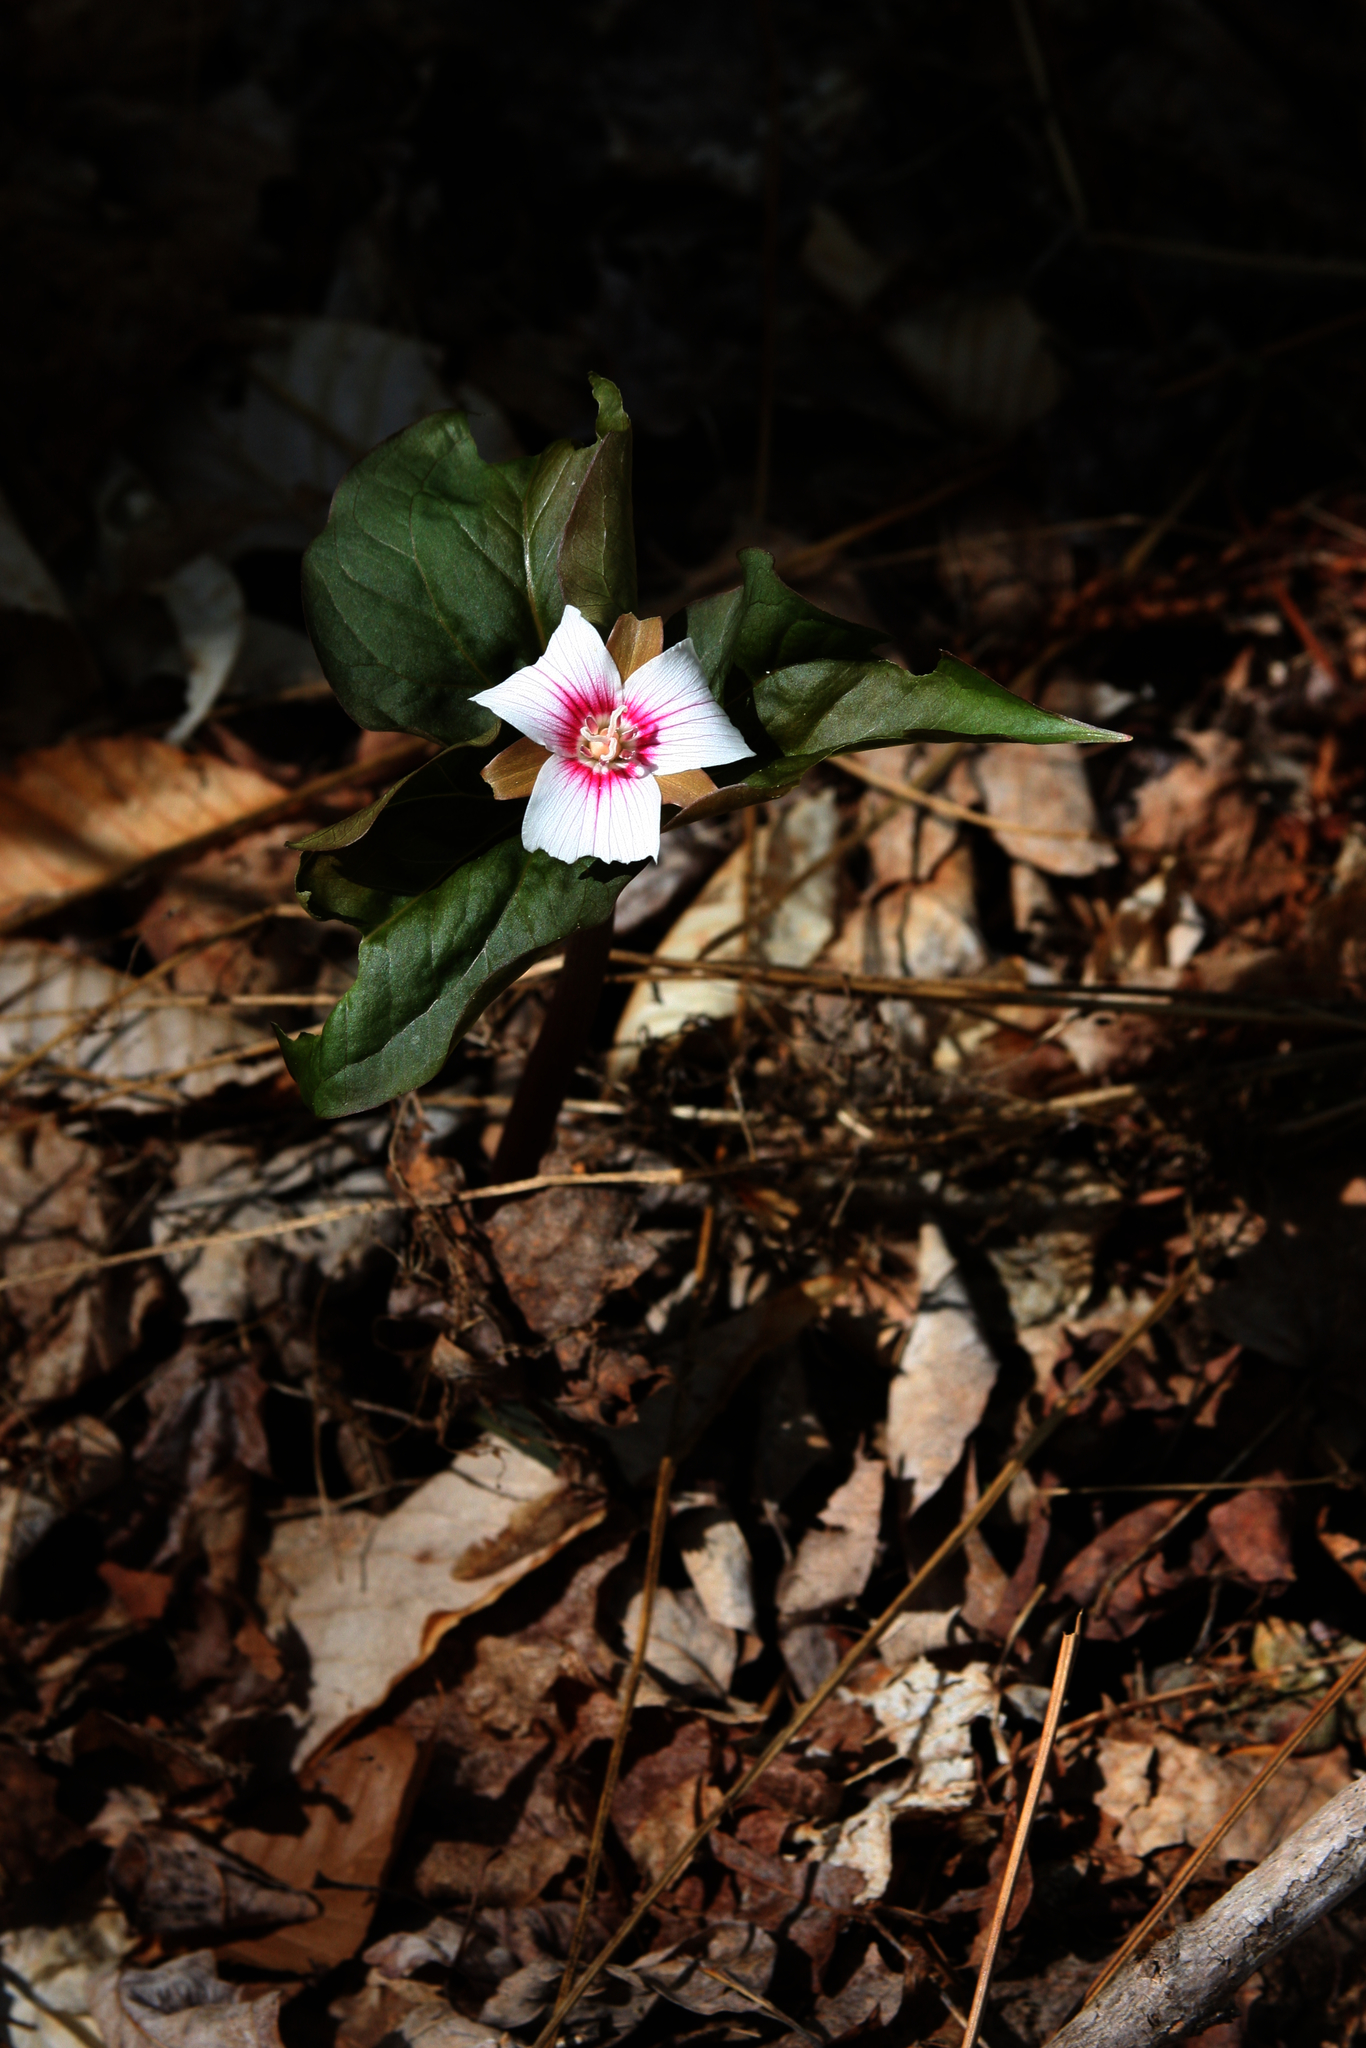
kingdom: Plantae
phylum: Tracheophyta
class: Liliopsida
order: Liliales
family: Melanthiaceae
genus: Trillium
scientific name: Trillium undulatum
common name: Paint trillium
